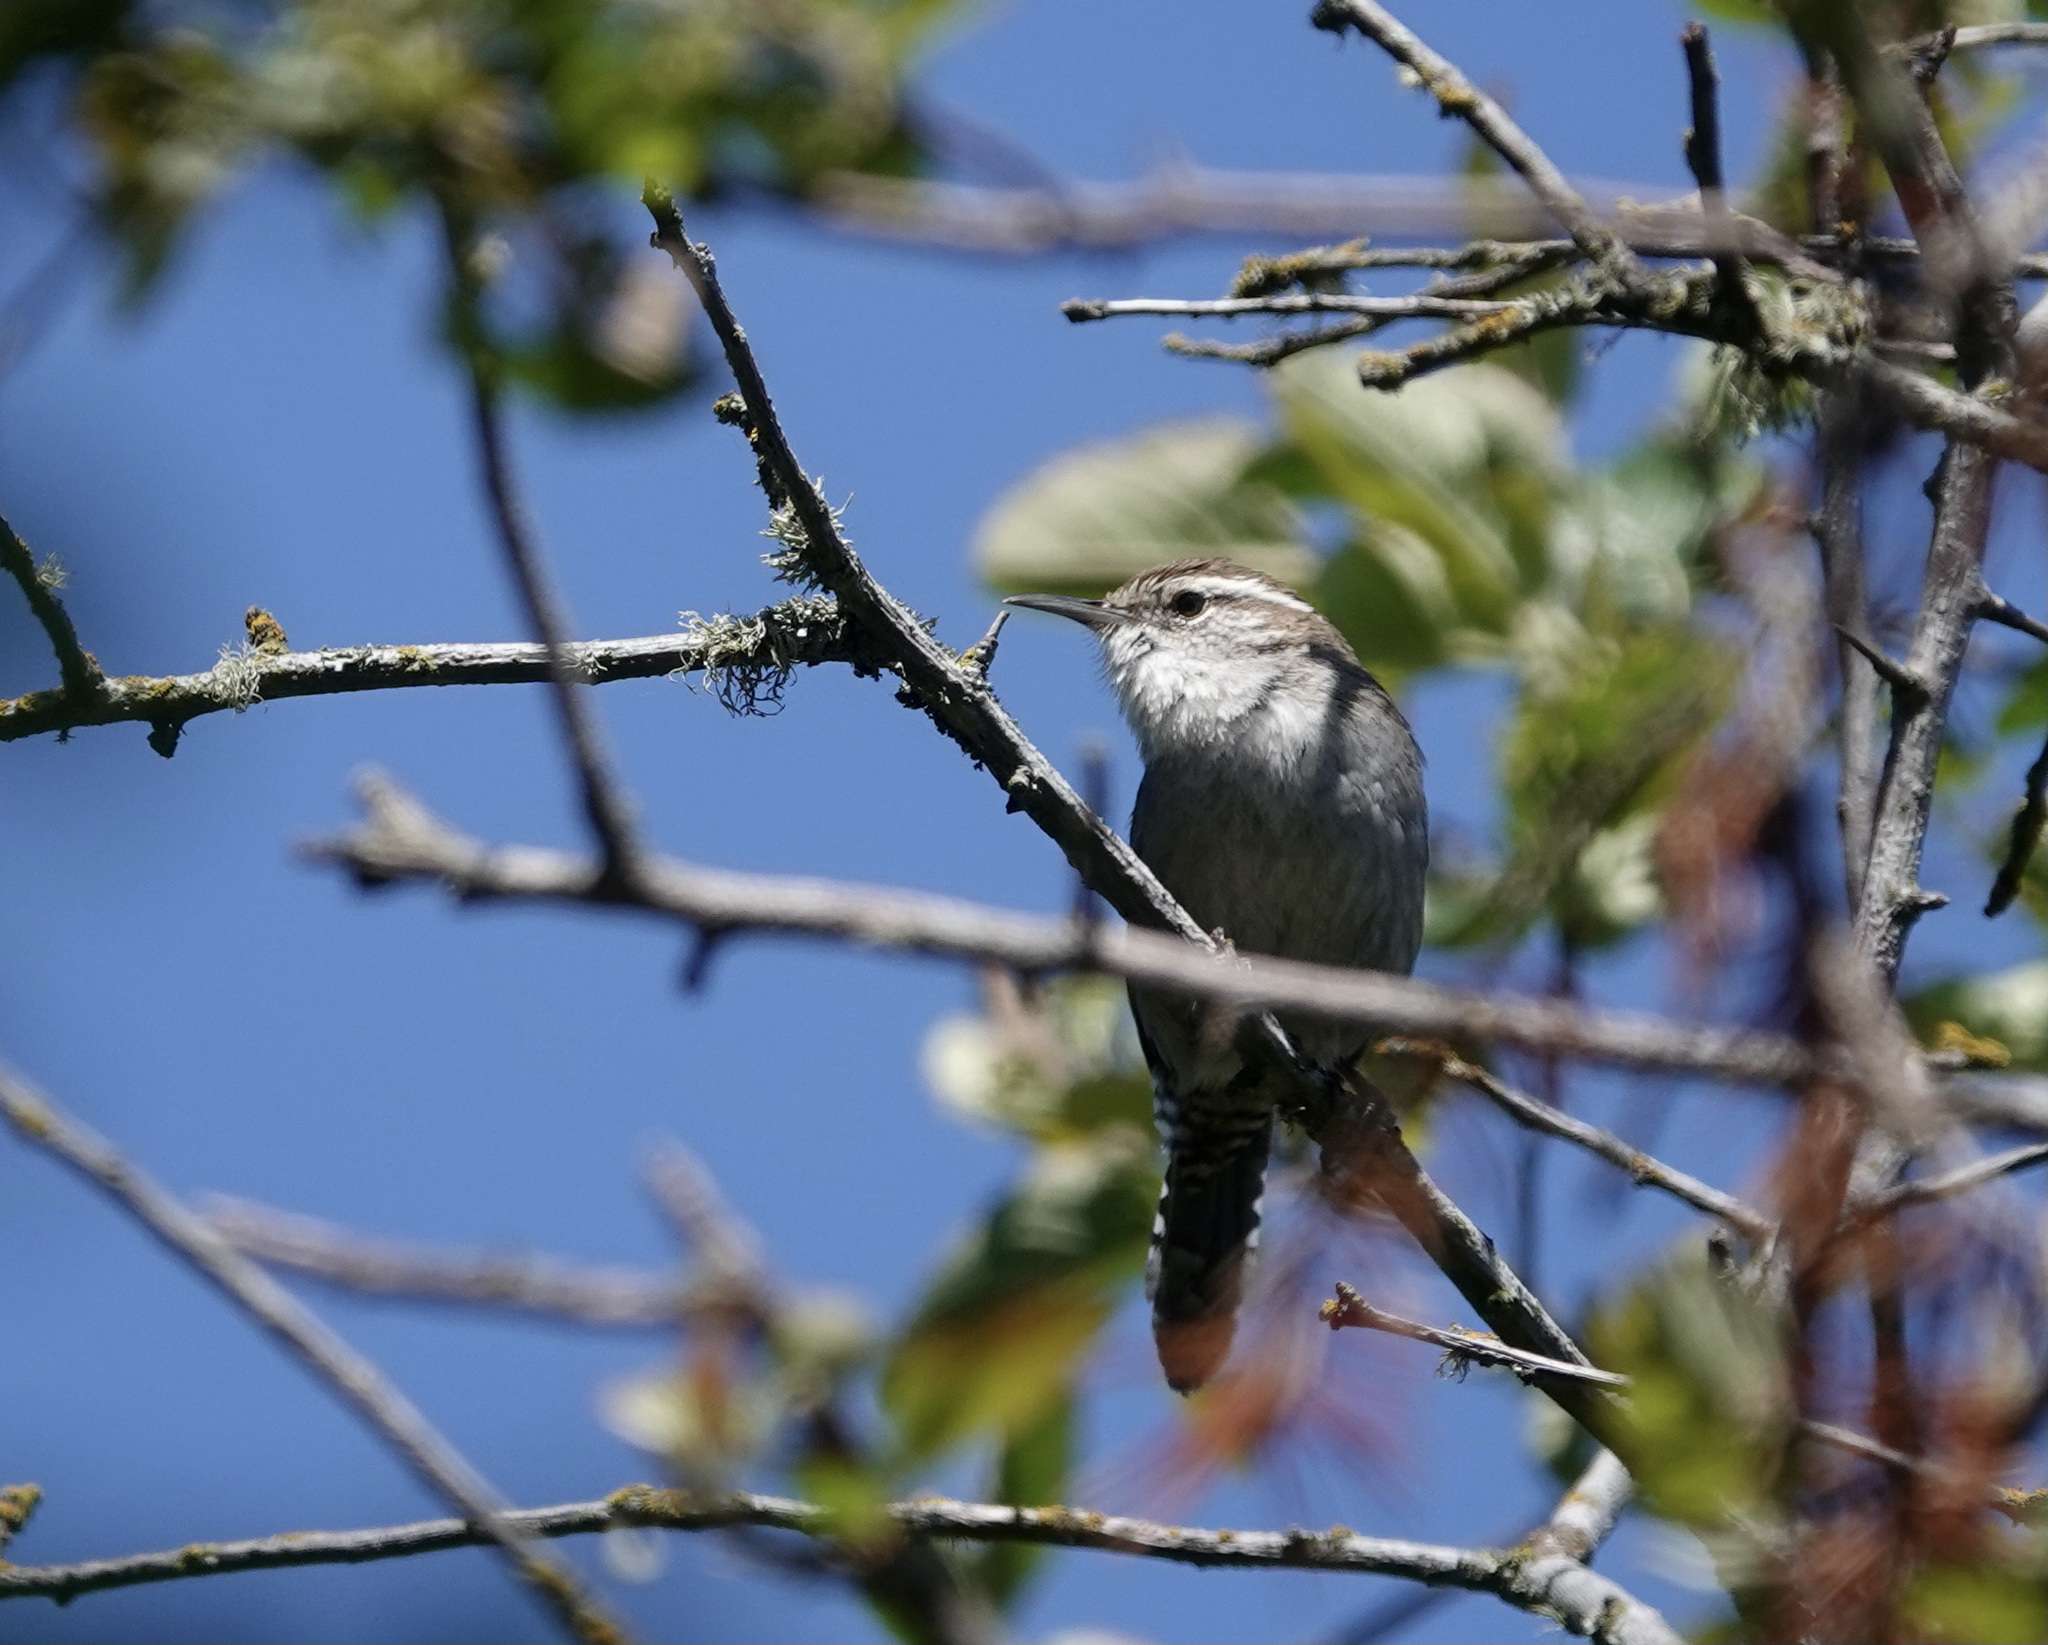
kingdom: Animalia
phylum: Chordata
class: Aves
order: Passeriformes
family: Troglodytidae
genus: Thryomanes
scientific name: Thryomanes bewickii
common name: Bewick's wren
